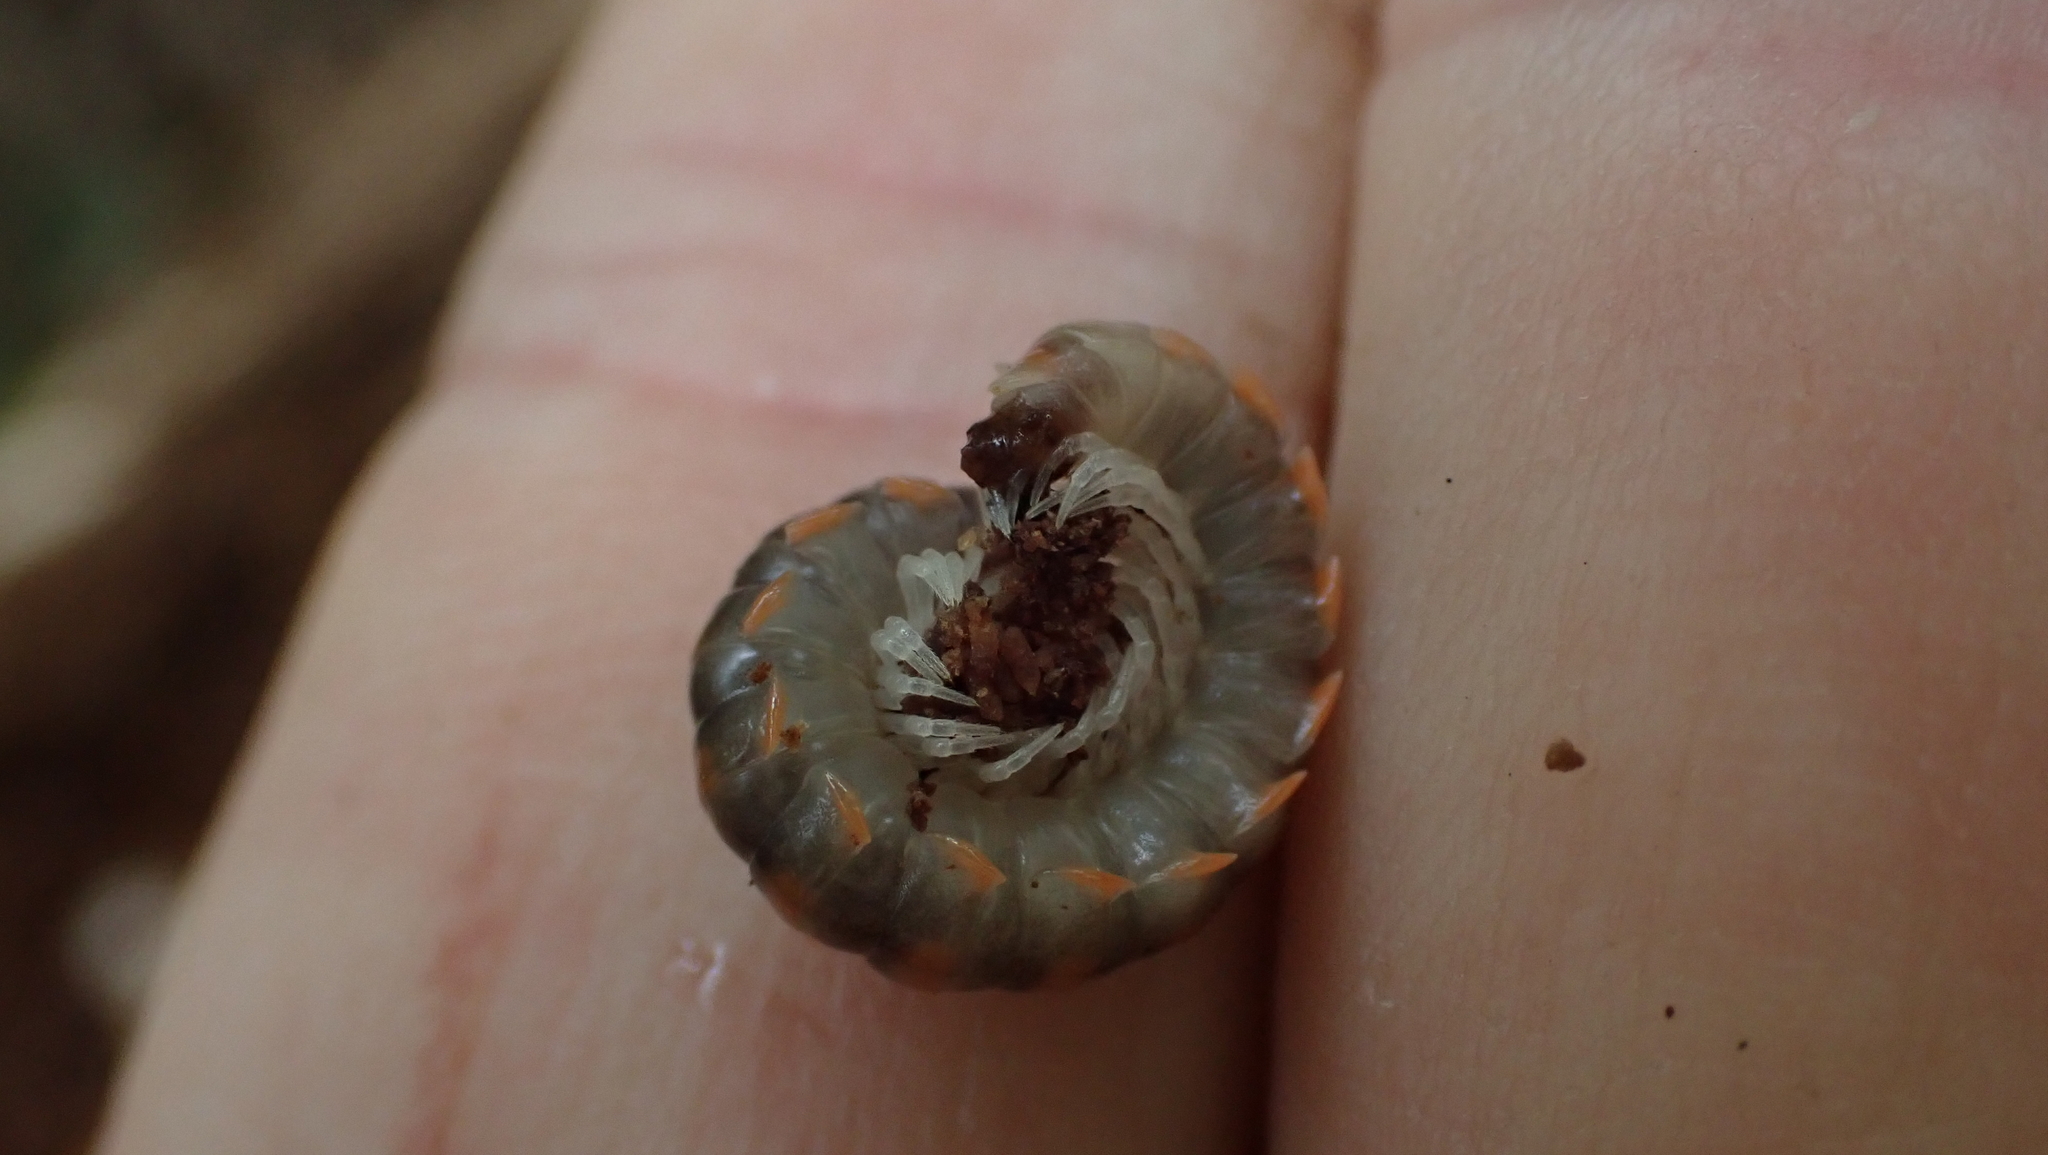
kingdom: Animalia
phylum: Arthropoda
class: Diplopoda
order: Polydesmida
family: Xystodesmidae
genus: Euryurus
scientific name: Euryurus leachii
